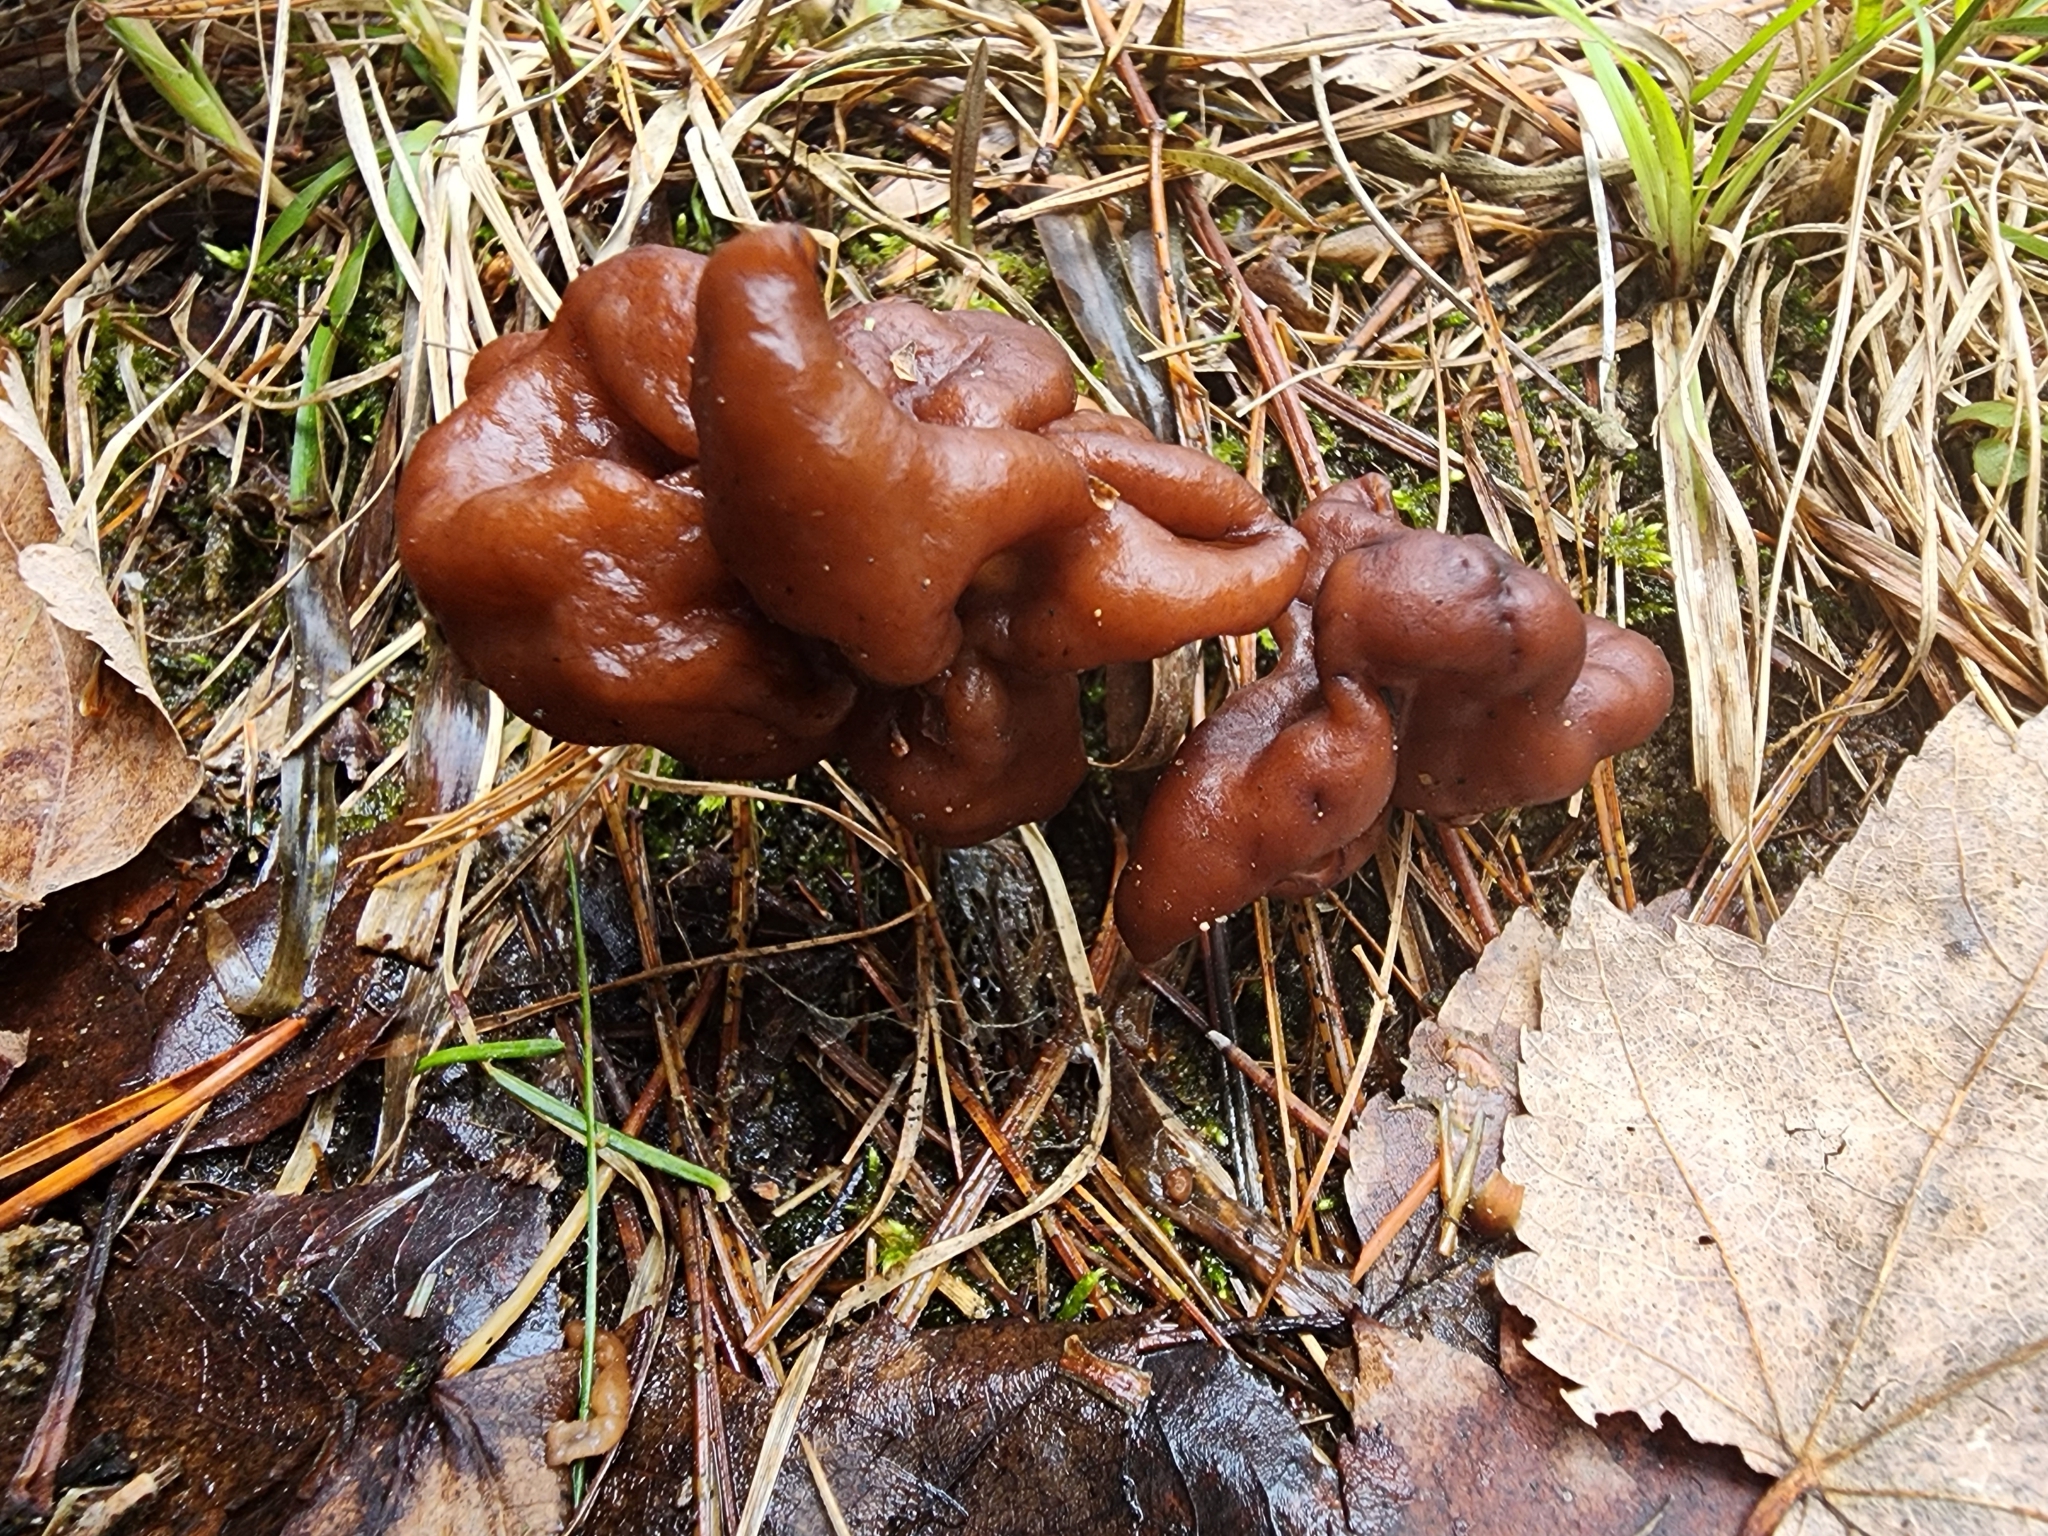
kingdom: Fungi
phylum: Ascomycota
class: Pezizomycetes
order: Pezizales
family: Discinaceae
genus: Gyromitra
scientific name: Gyromitra esculenta
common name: False morel
